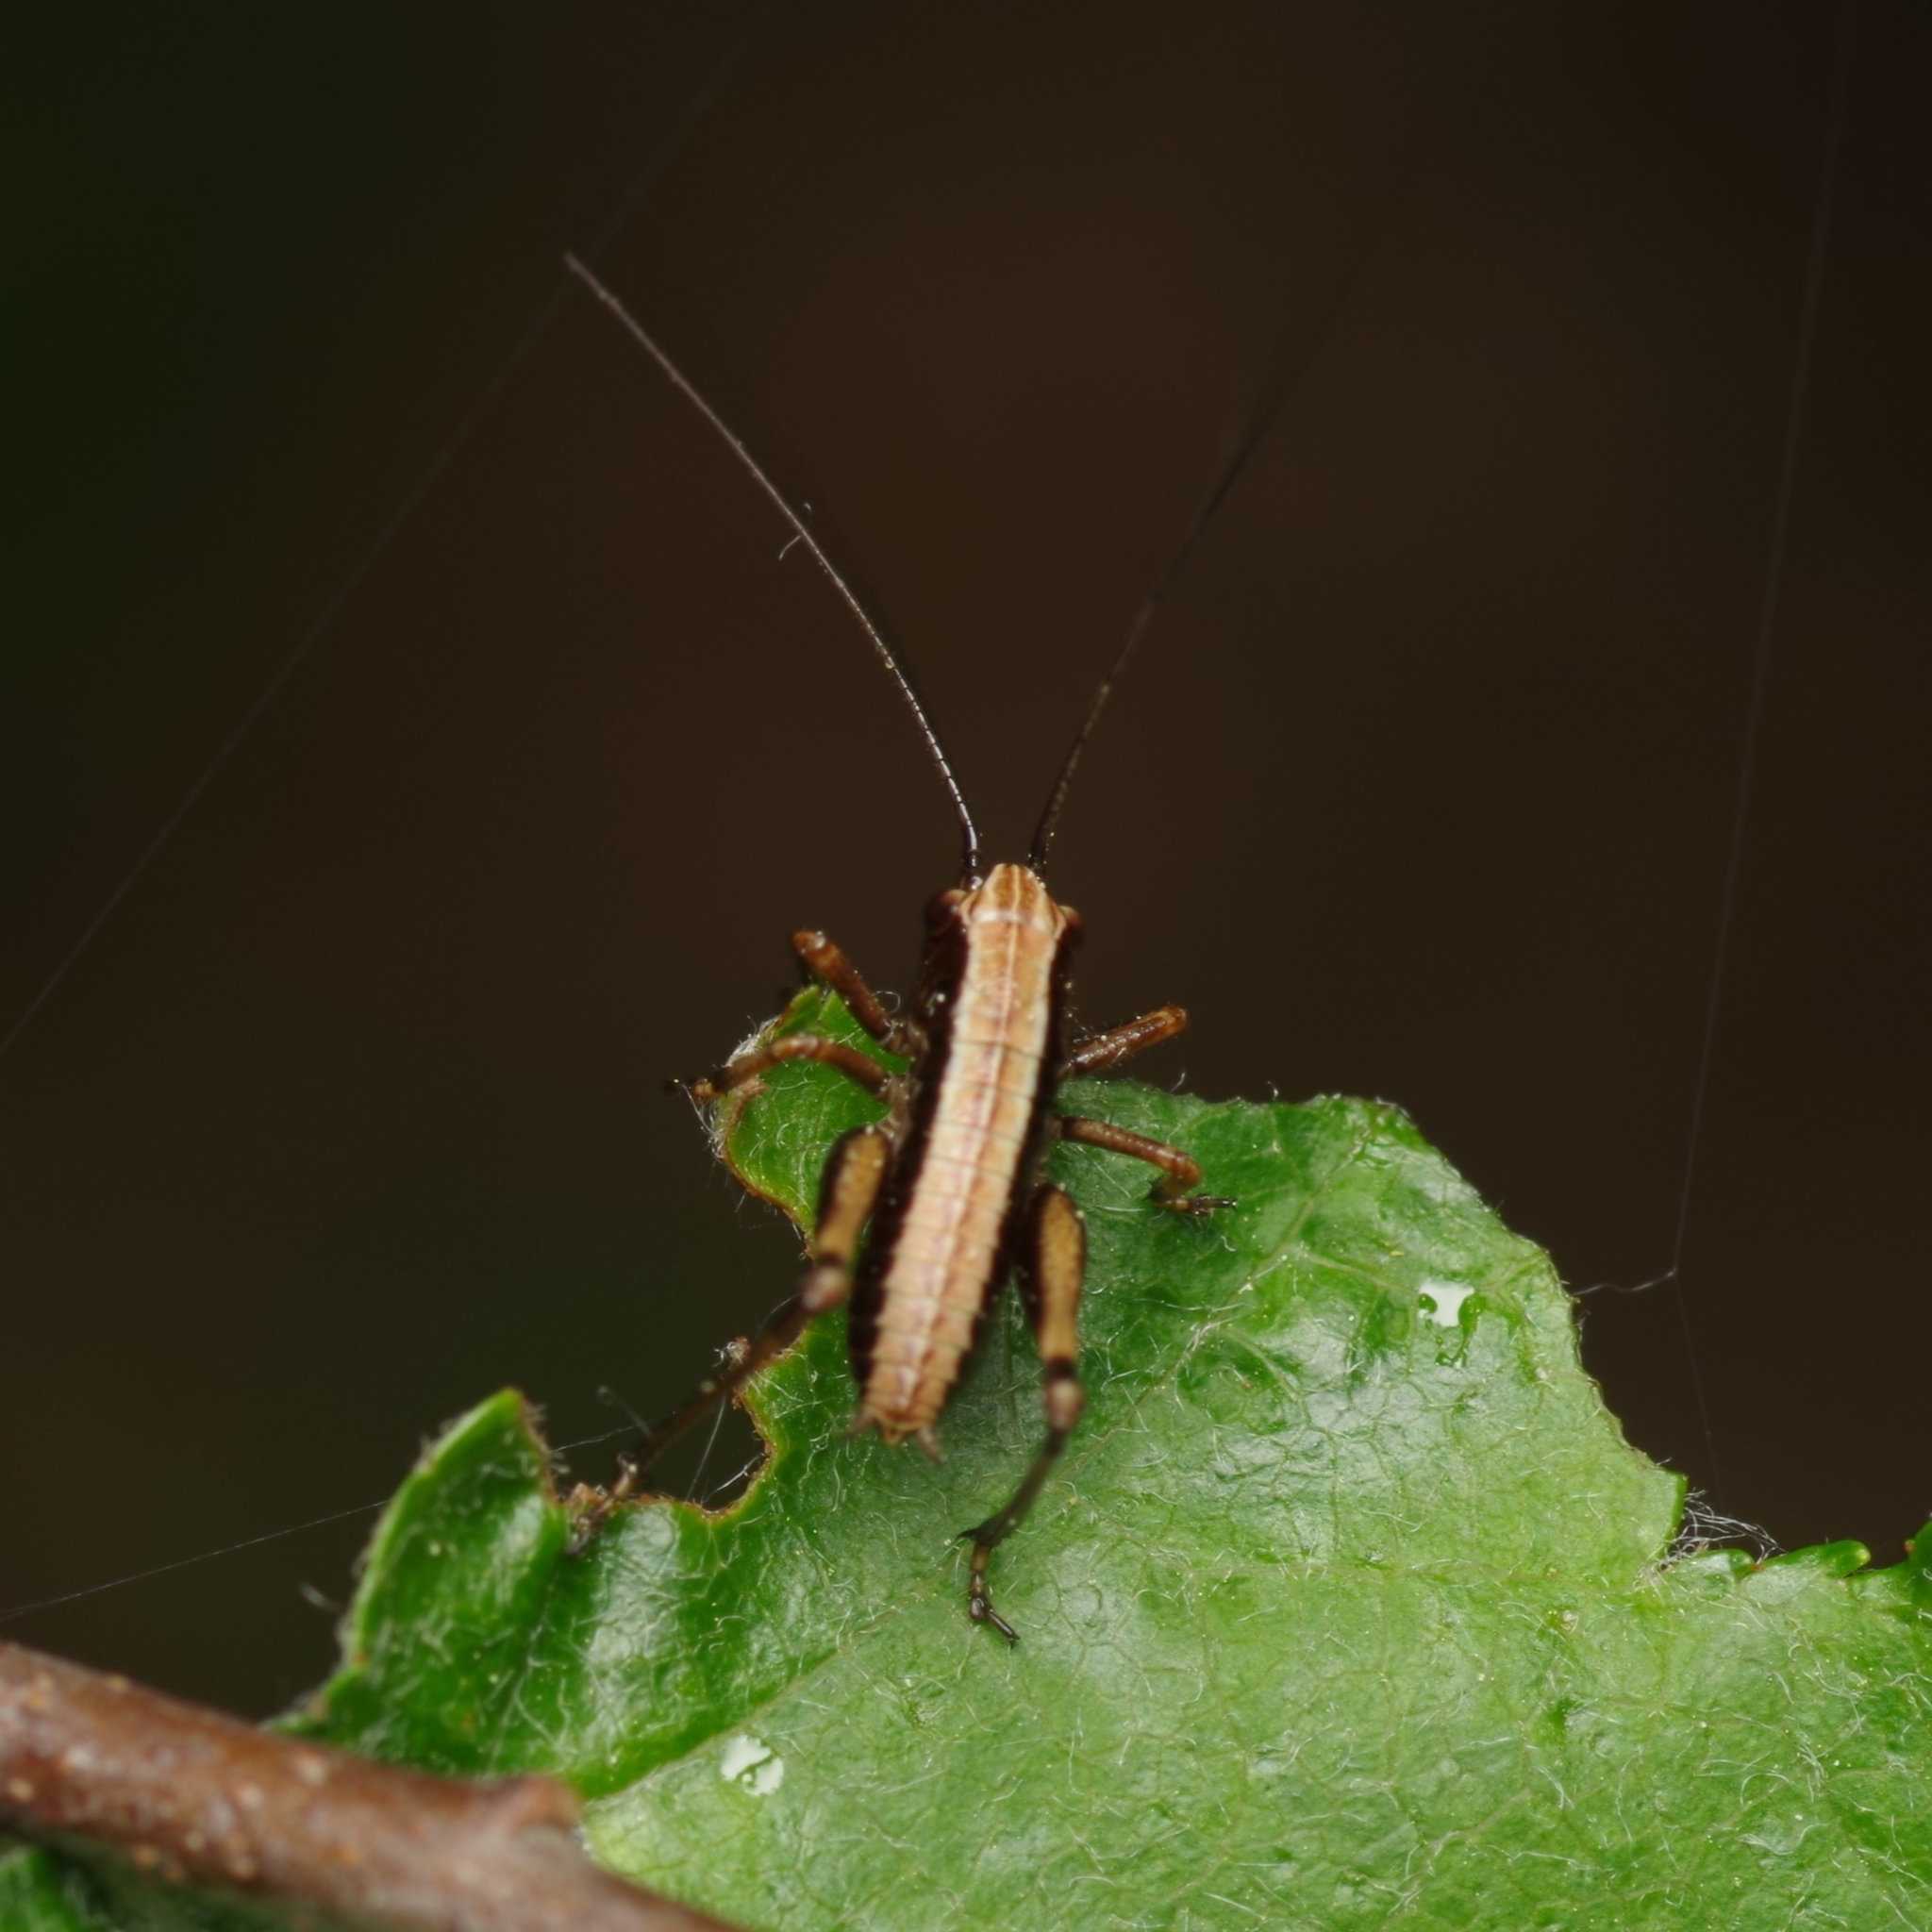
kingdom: Animalia
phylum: Arthropoda
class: Insecta
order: Orthoptera
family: Tettigoniidae
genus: Pholidoptera
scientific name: Pholidoptera griseoaptera
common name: Dark bush-cricket
